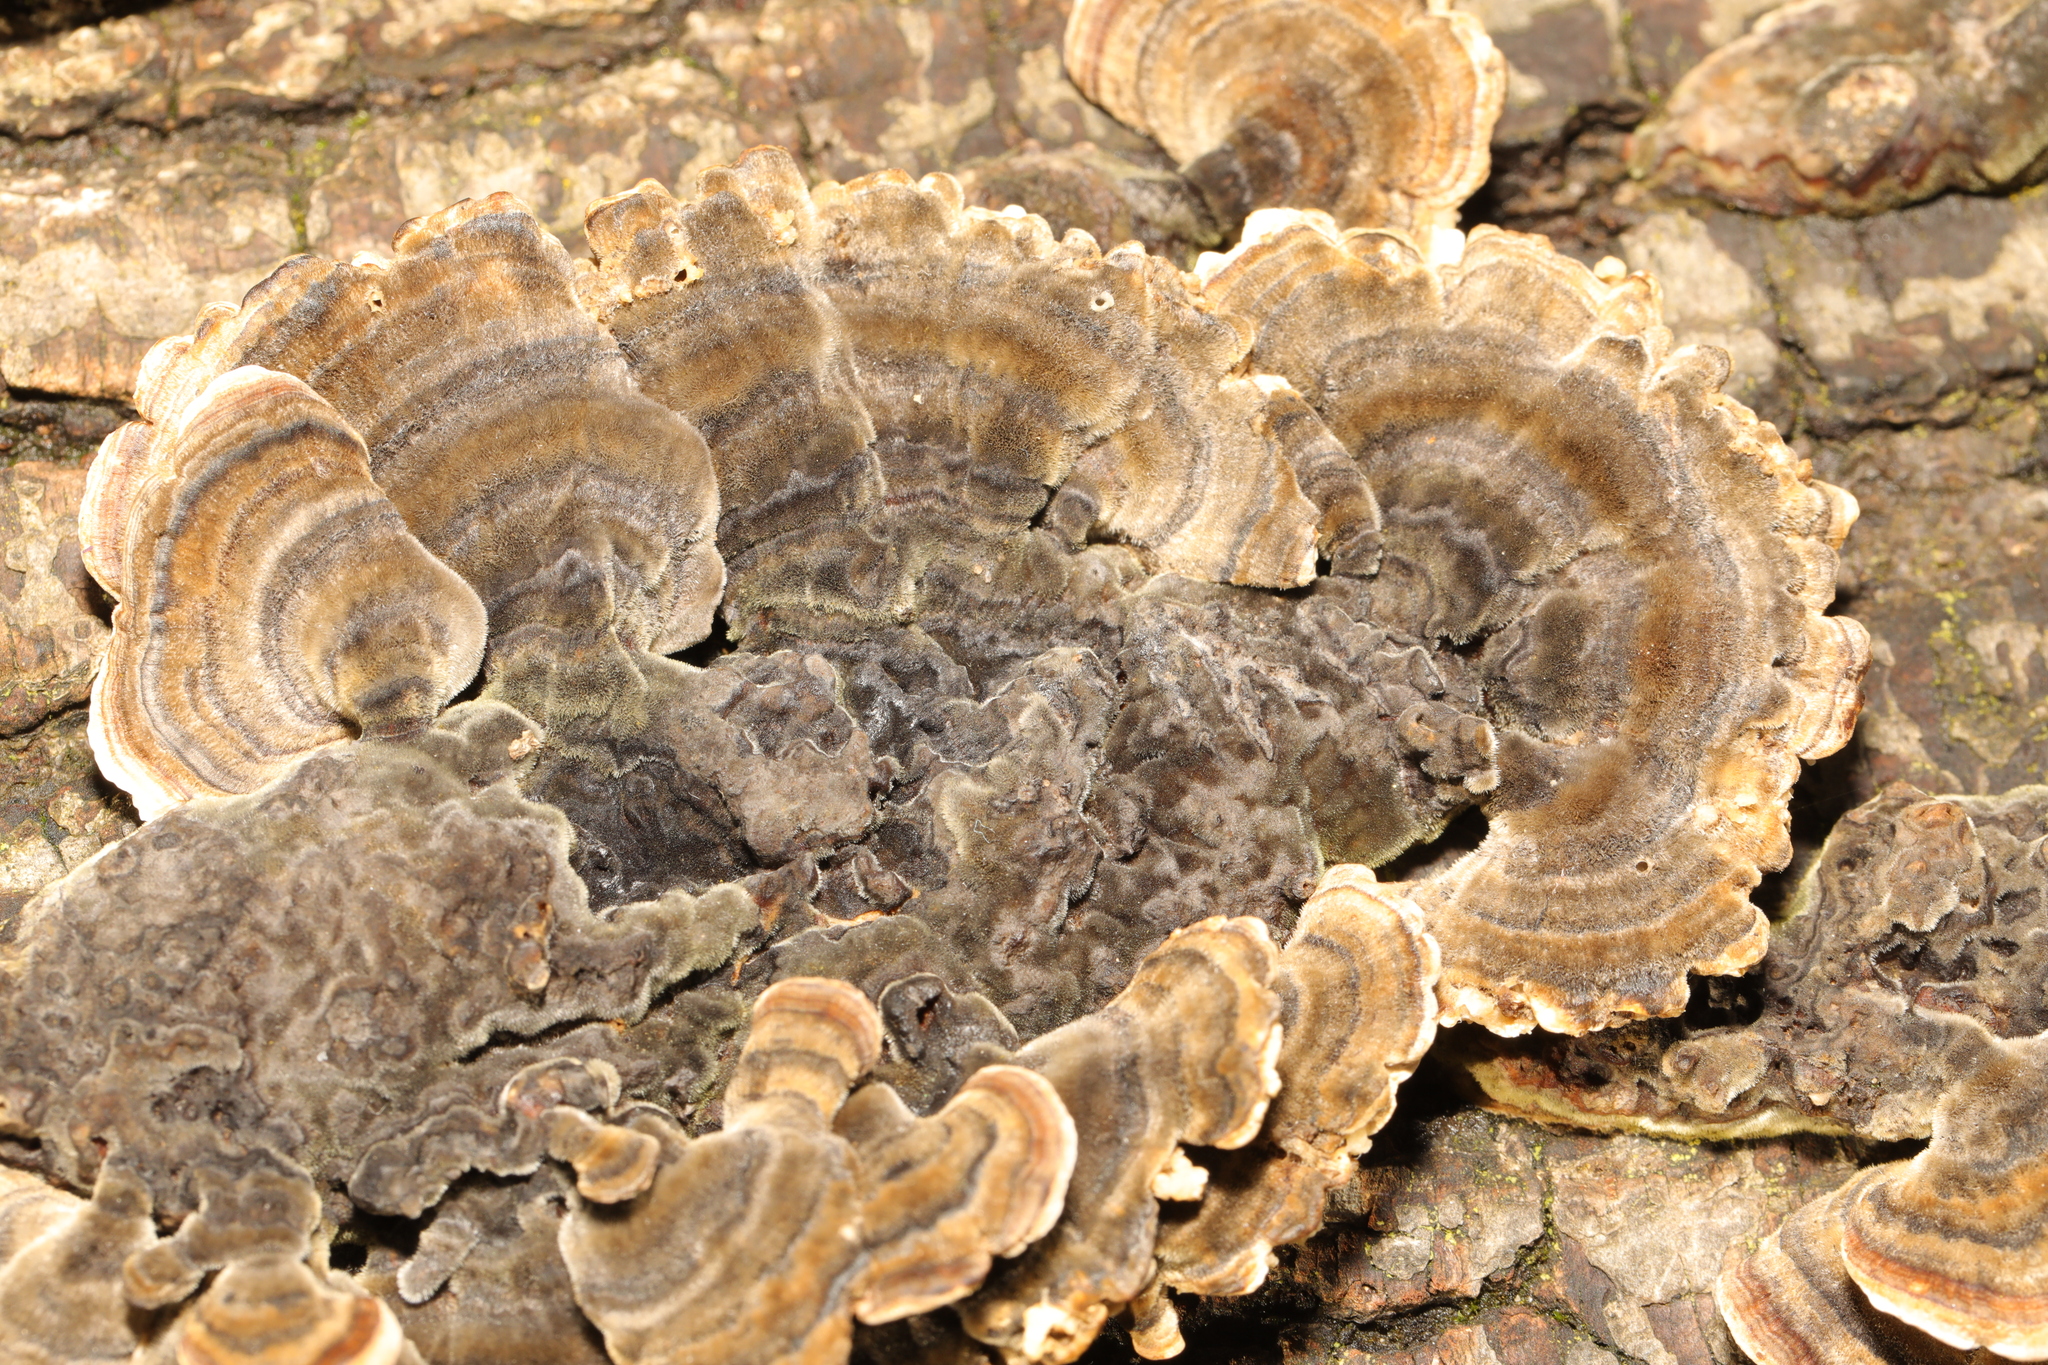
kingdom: Fungi
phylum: Basidiomycota
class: Agaricomycetes
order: Polyporales
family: Polyporaceae
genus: Trametes
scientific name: Trametes versicolor
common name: Turkeytail
